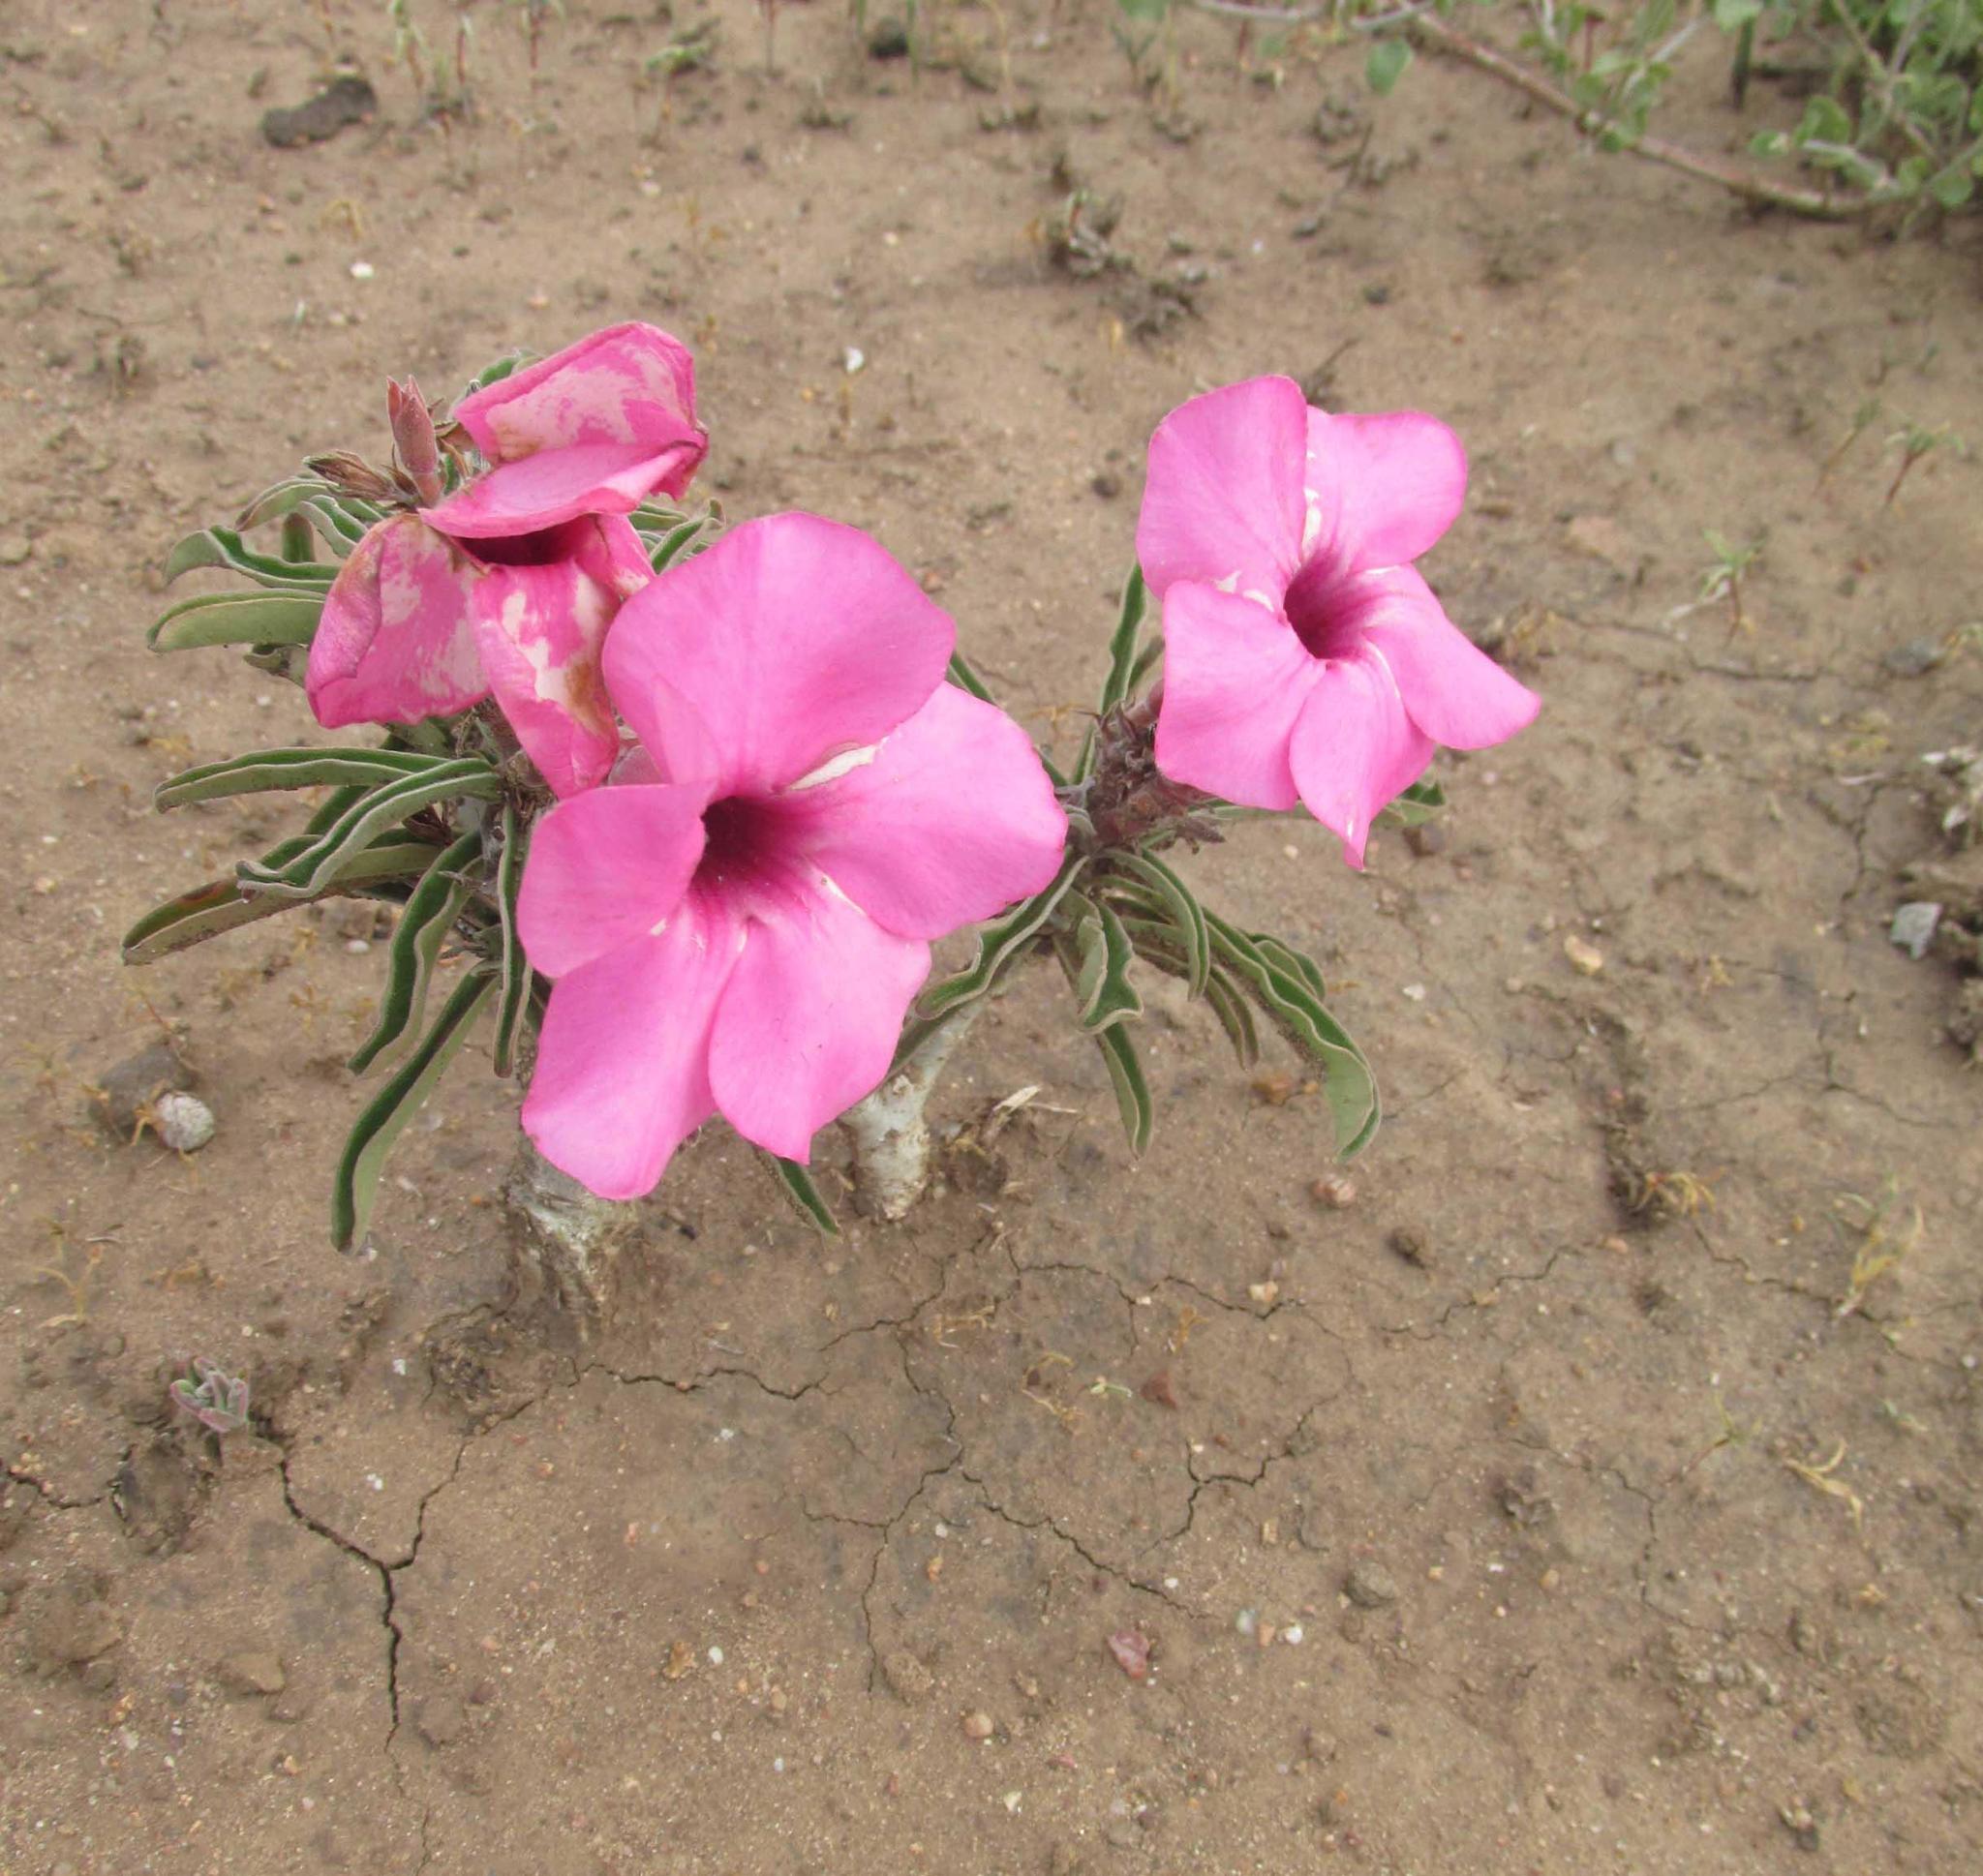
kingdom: Plantae
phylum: Tracheophyta
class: Magnoliopsida
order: Gentianales
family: Apocynaceae
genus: Adenium
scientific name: Adenium obesum
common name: Desert-rose
